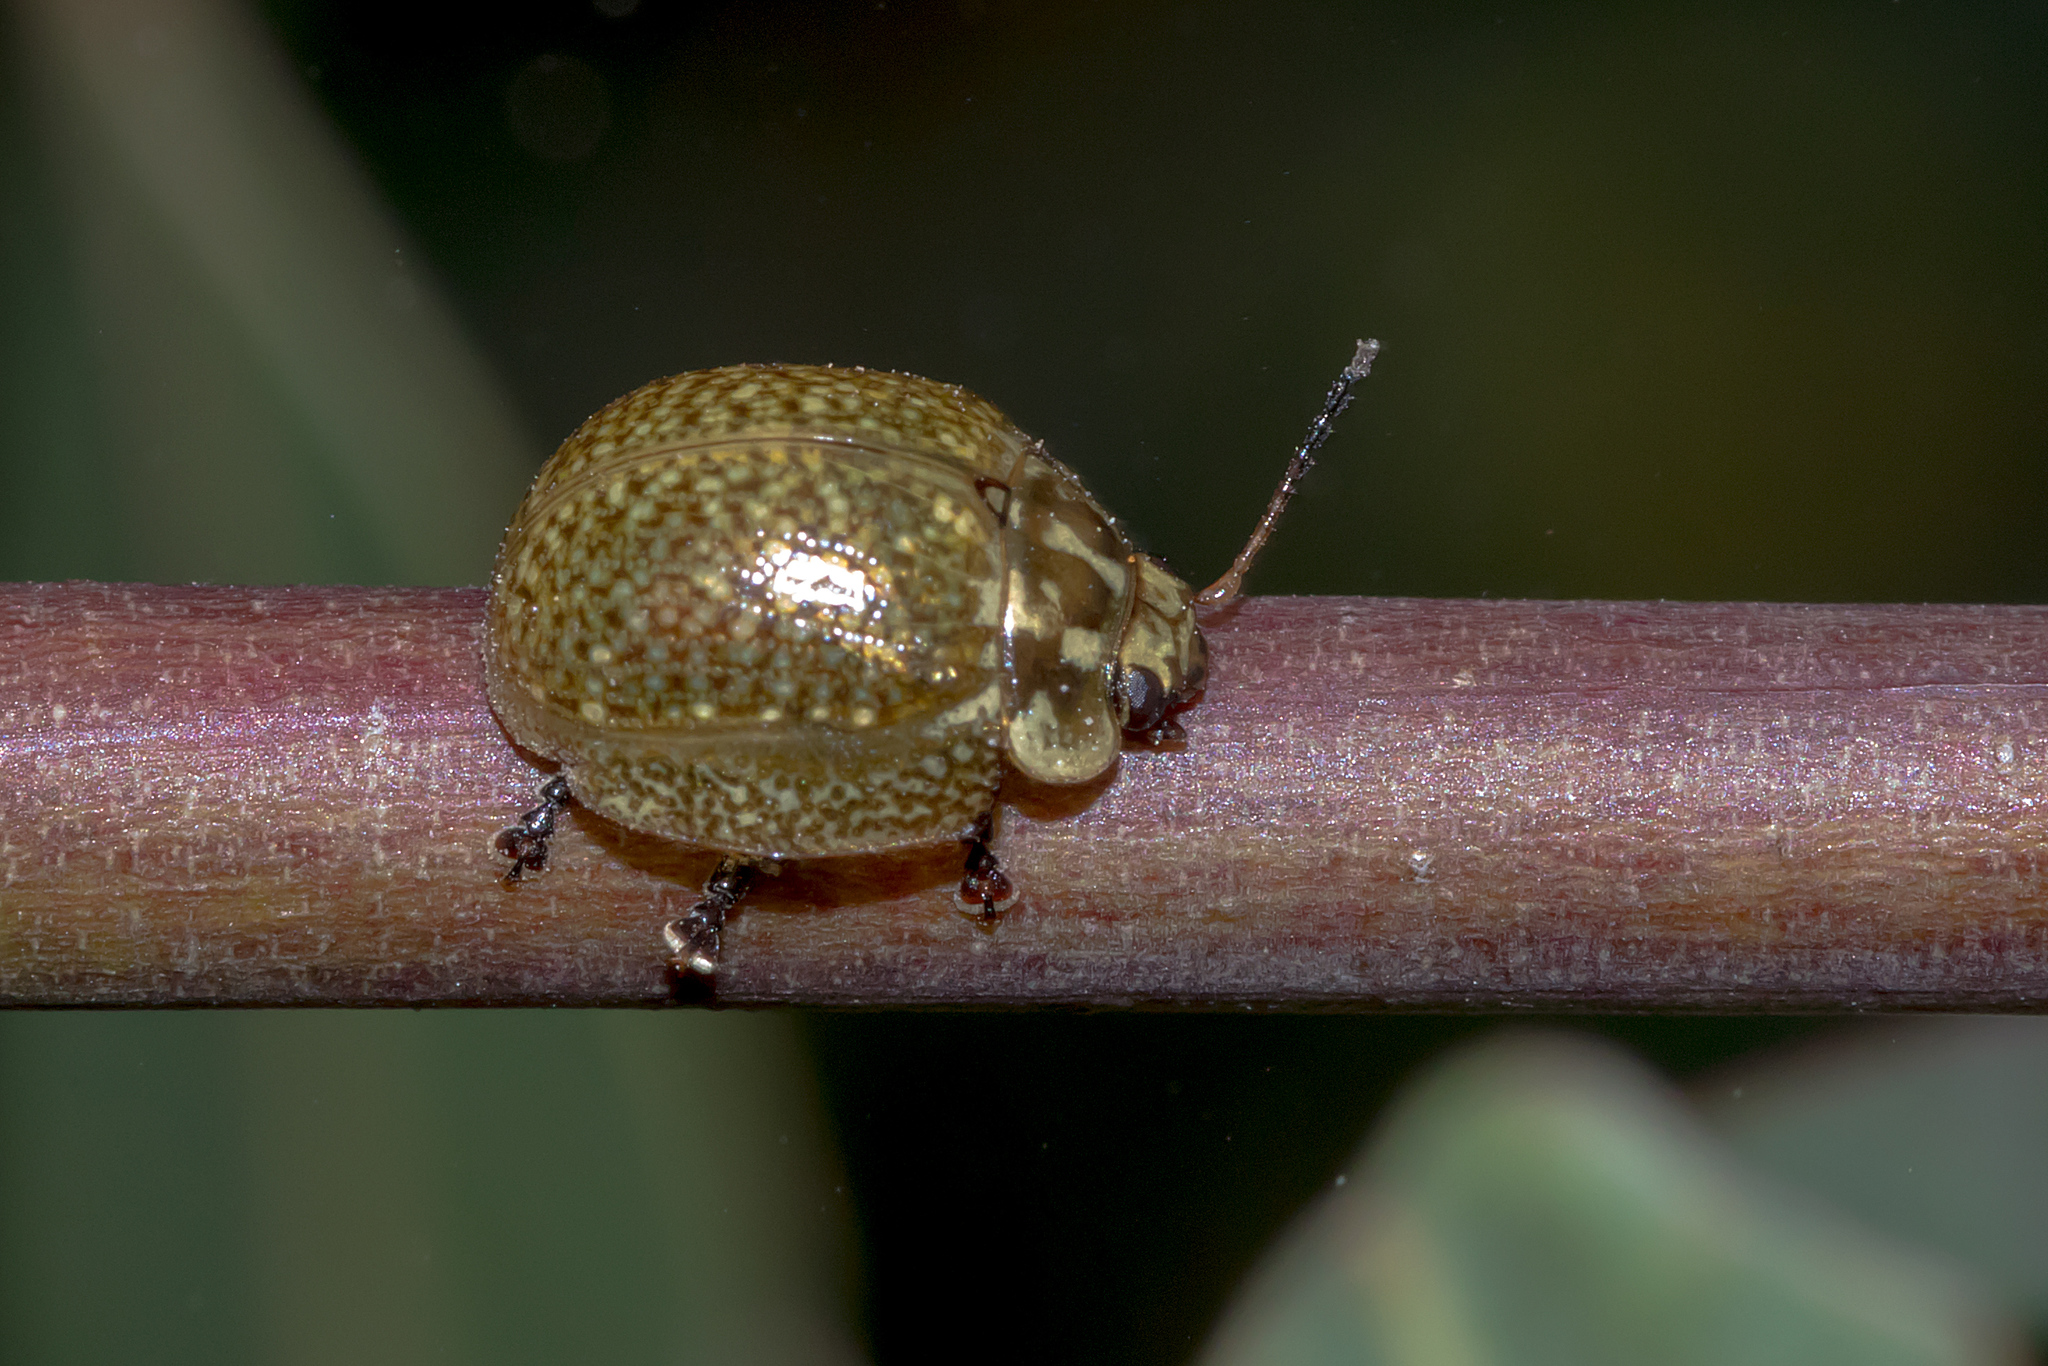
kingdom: Animalia
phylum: Arthropoda
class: Insecta
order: Coleoptera
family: Chrysomelidae
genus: Paropsisterna
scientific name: Paropsisterna cloelia
